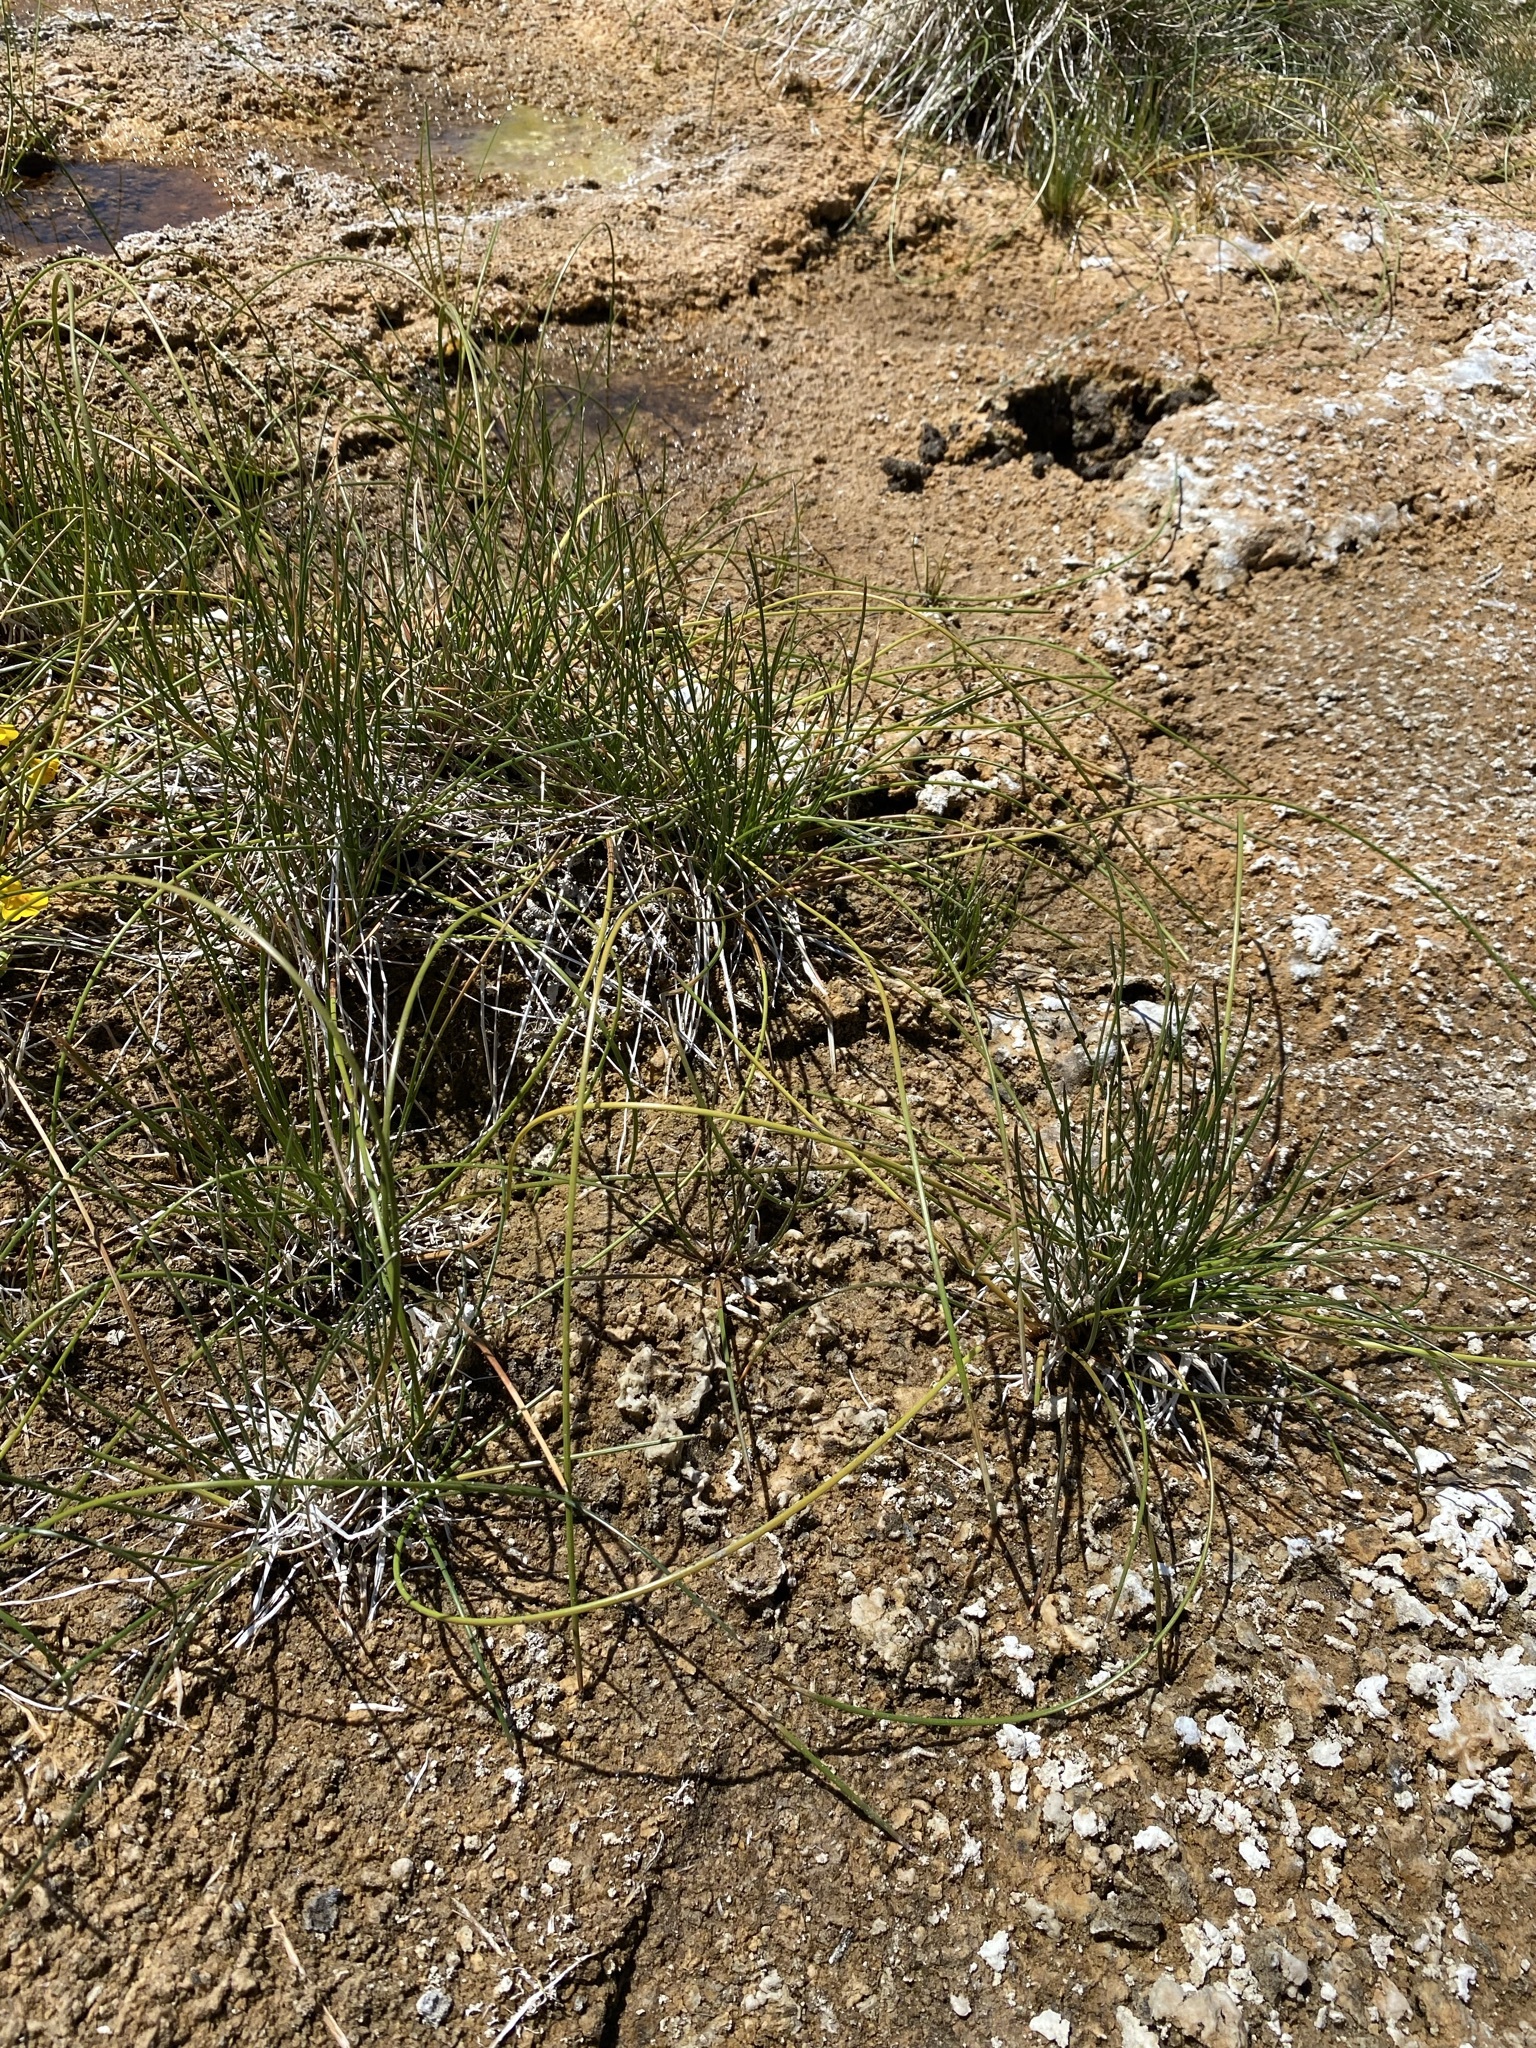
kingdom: Plantae
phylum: Tracheophyta
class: Liliopsida
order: Poales
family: Cyperaceae
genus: Eleocharis
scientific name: Eleocharis rostellata
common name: Walking sedge
